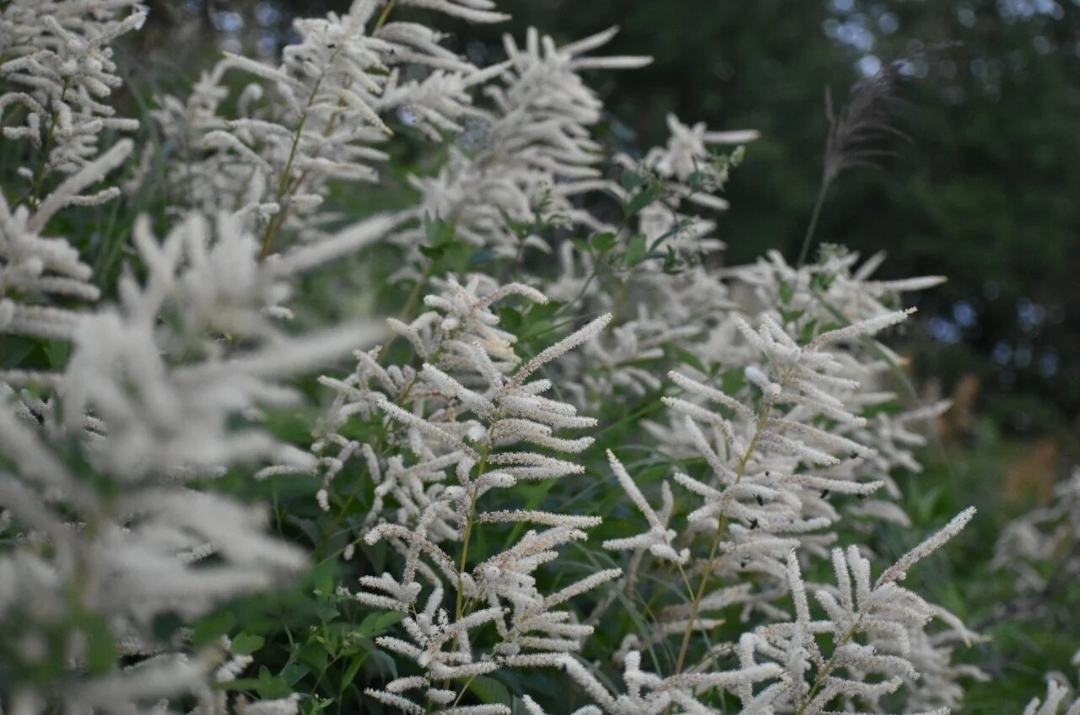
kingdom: Plantae
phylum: Tracheophyta
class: Magnoliopsida
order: Rosales
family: Rosaceae
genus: Aruncus
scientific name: Aruncus dioicus
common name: Buck's-beard
